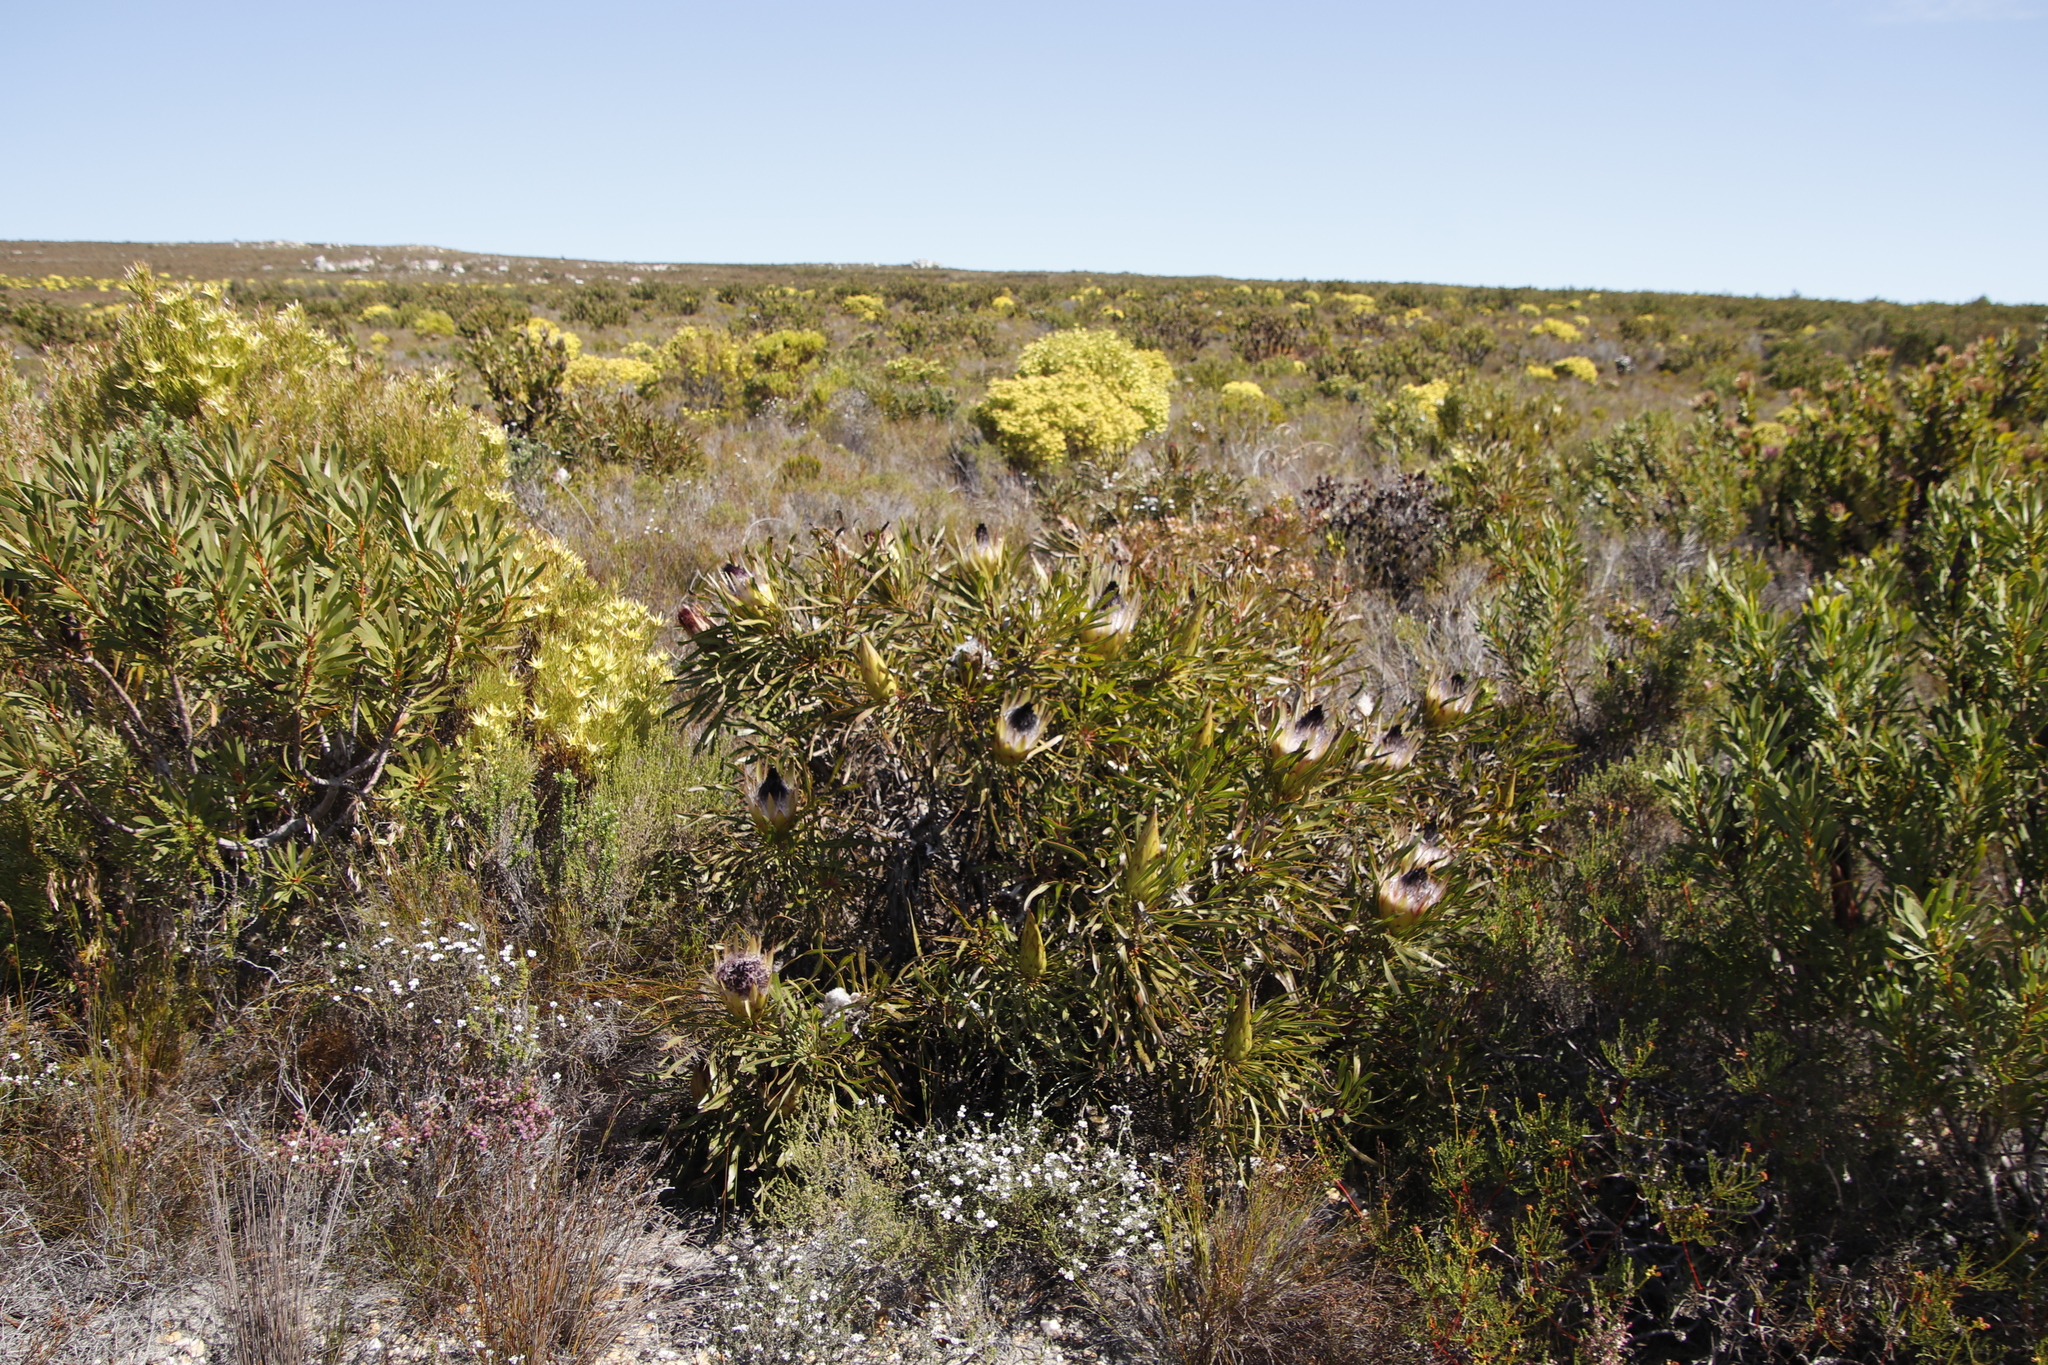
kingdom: Plantae
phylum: Tracheophyta
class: Magnoliopsida
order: Proteales
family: Proteaceae
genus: Protea
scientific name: Protea longifolia
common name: Long-leaf sugarbush
